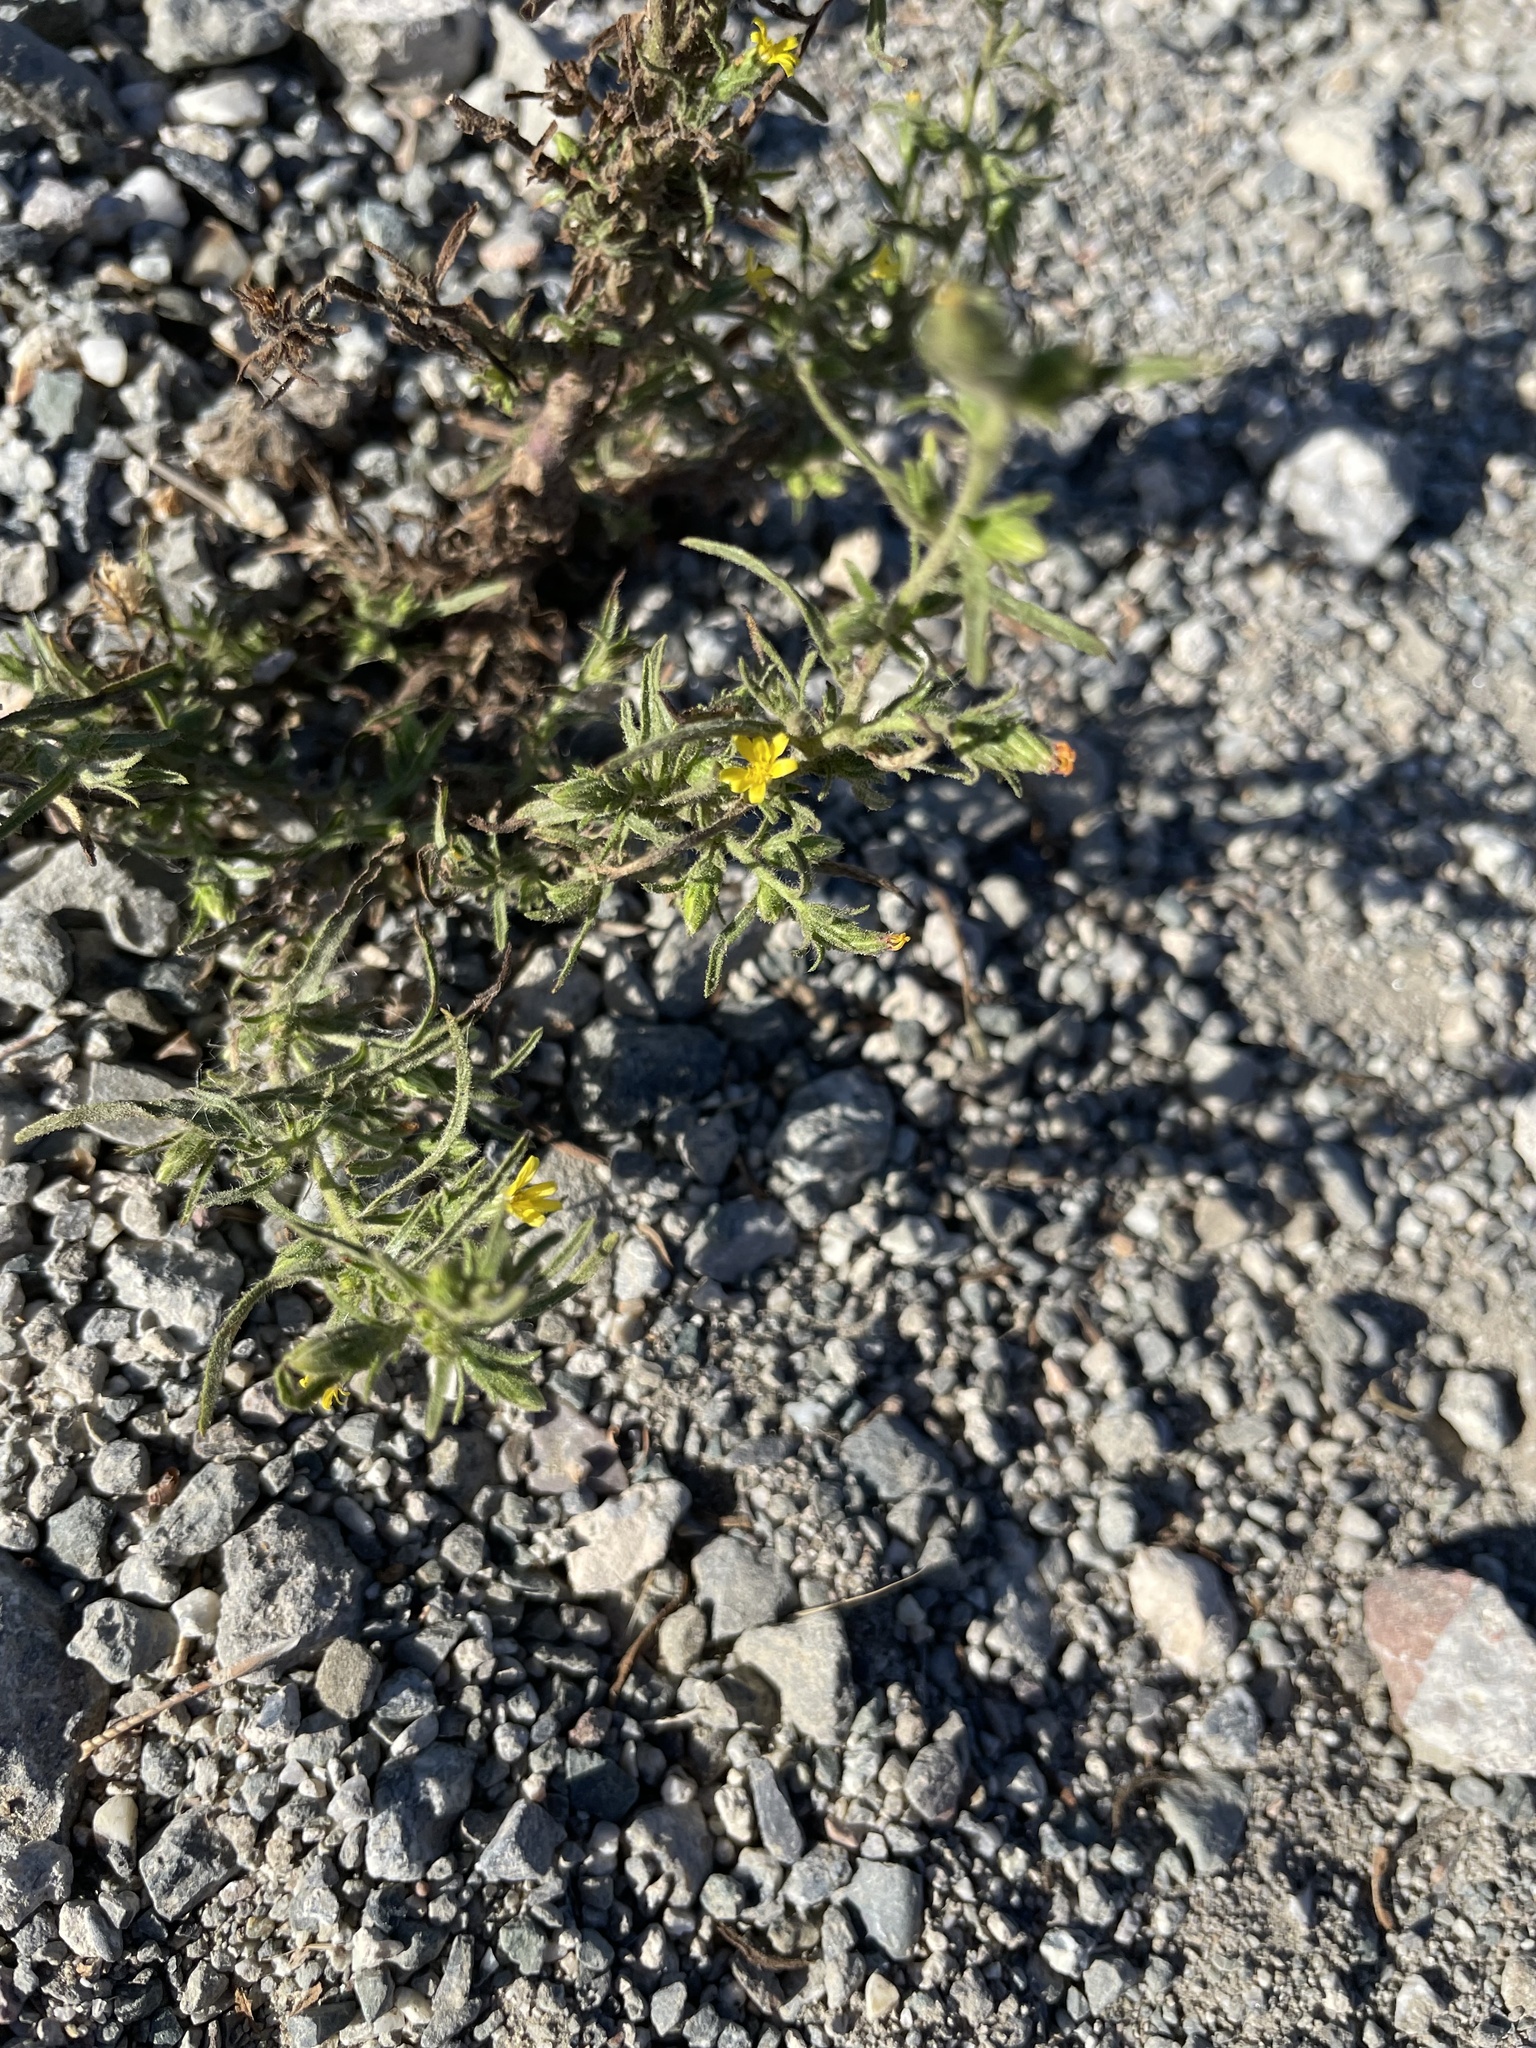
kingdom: Plantae
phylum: Tracheophyta
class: Magnoliopsida
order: Asterales
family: Asteraceae
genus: Dittrichia
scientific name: Dittrichia graveolens
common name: Stinking fleabane
